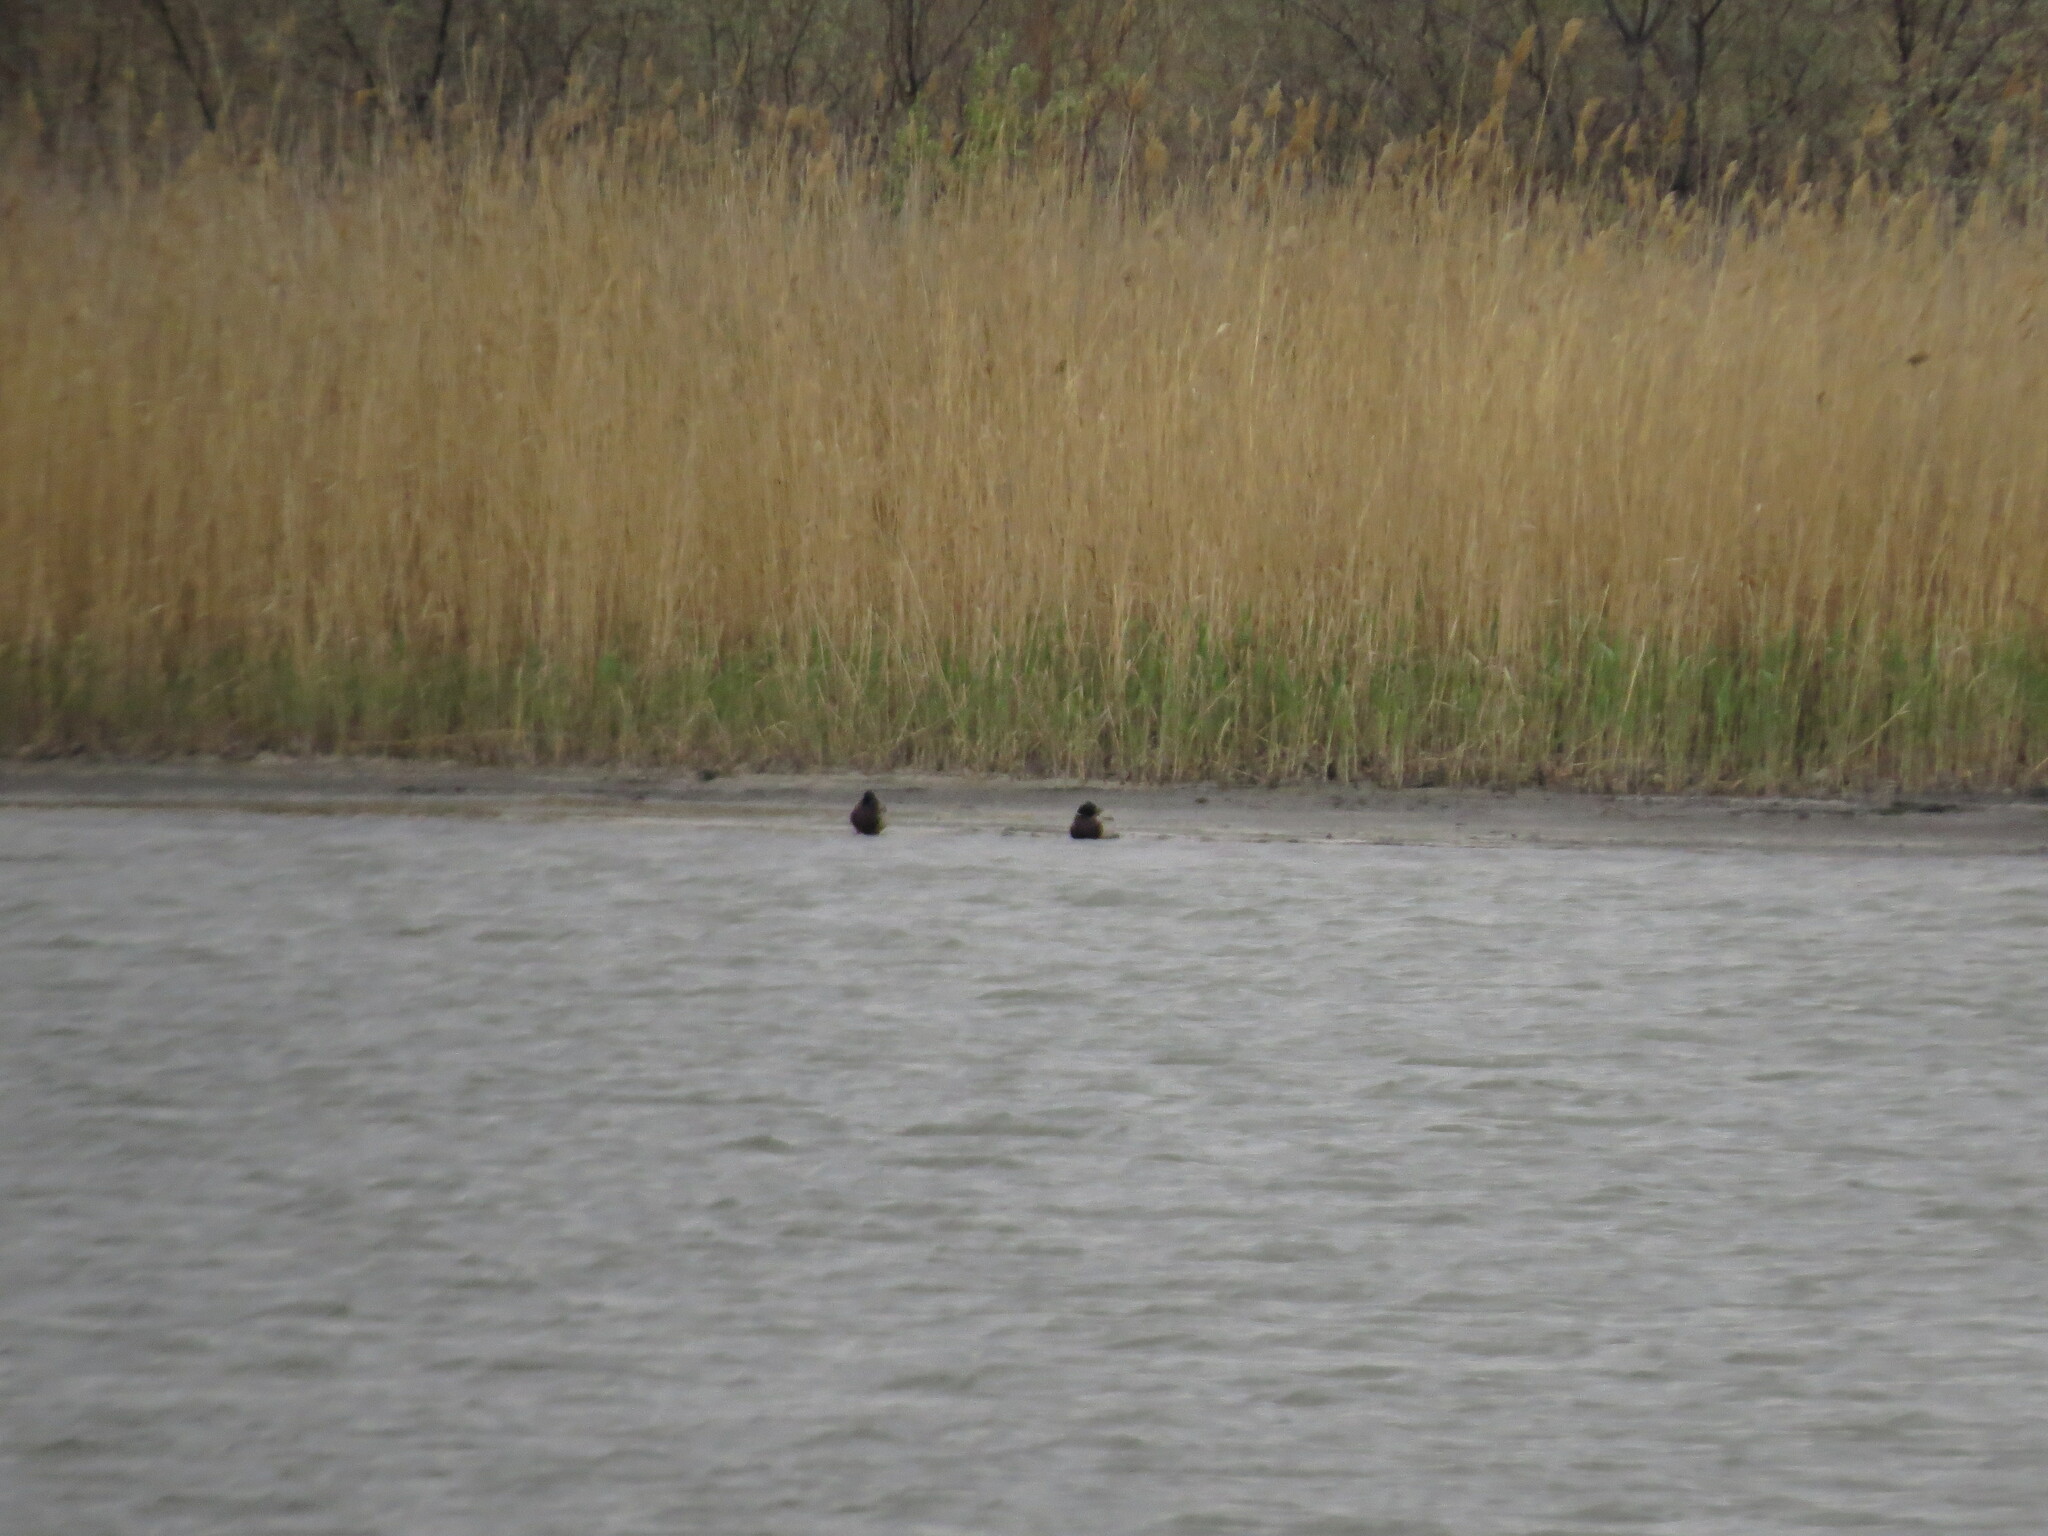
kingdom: Animalia
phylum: Chordata
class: Aves
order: Anseriformes
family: Anatidae
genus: Anas
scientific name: Anas platyrhynchos
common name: Mallard
